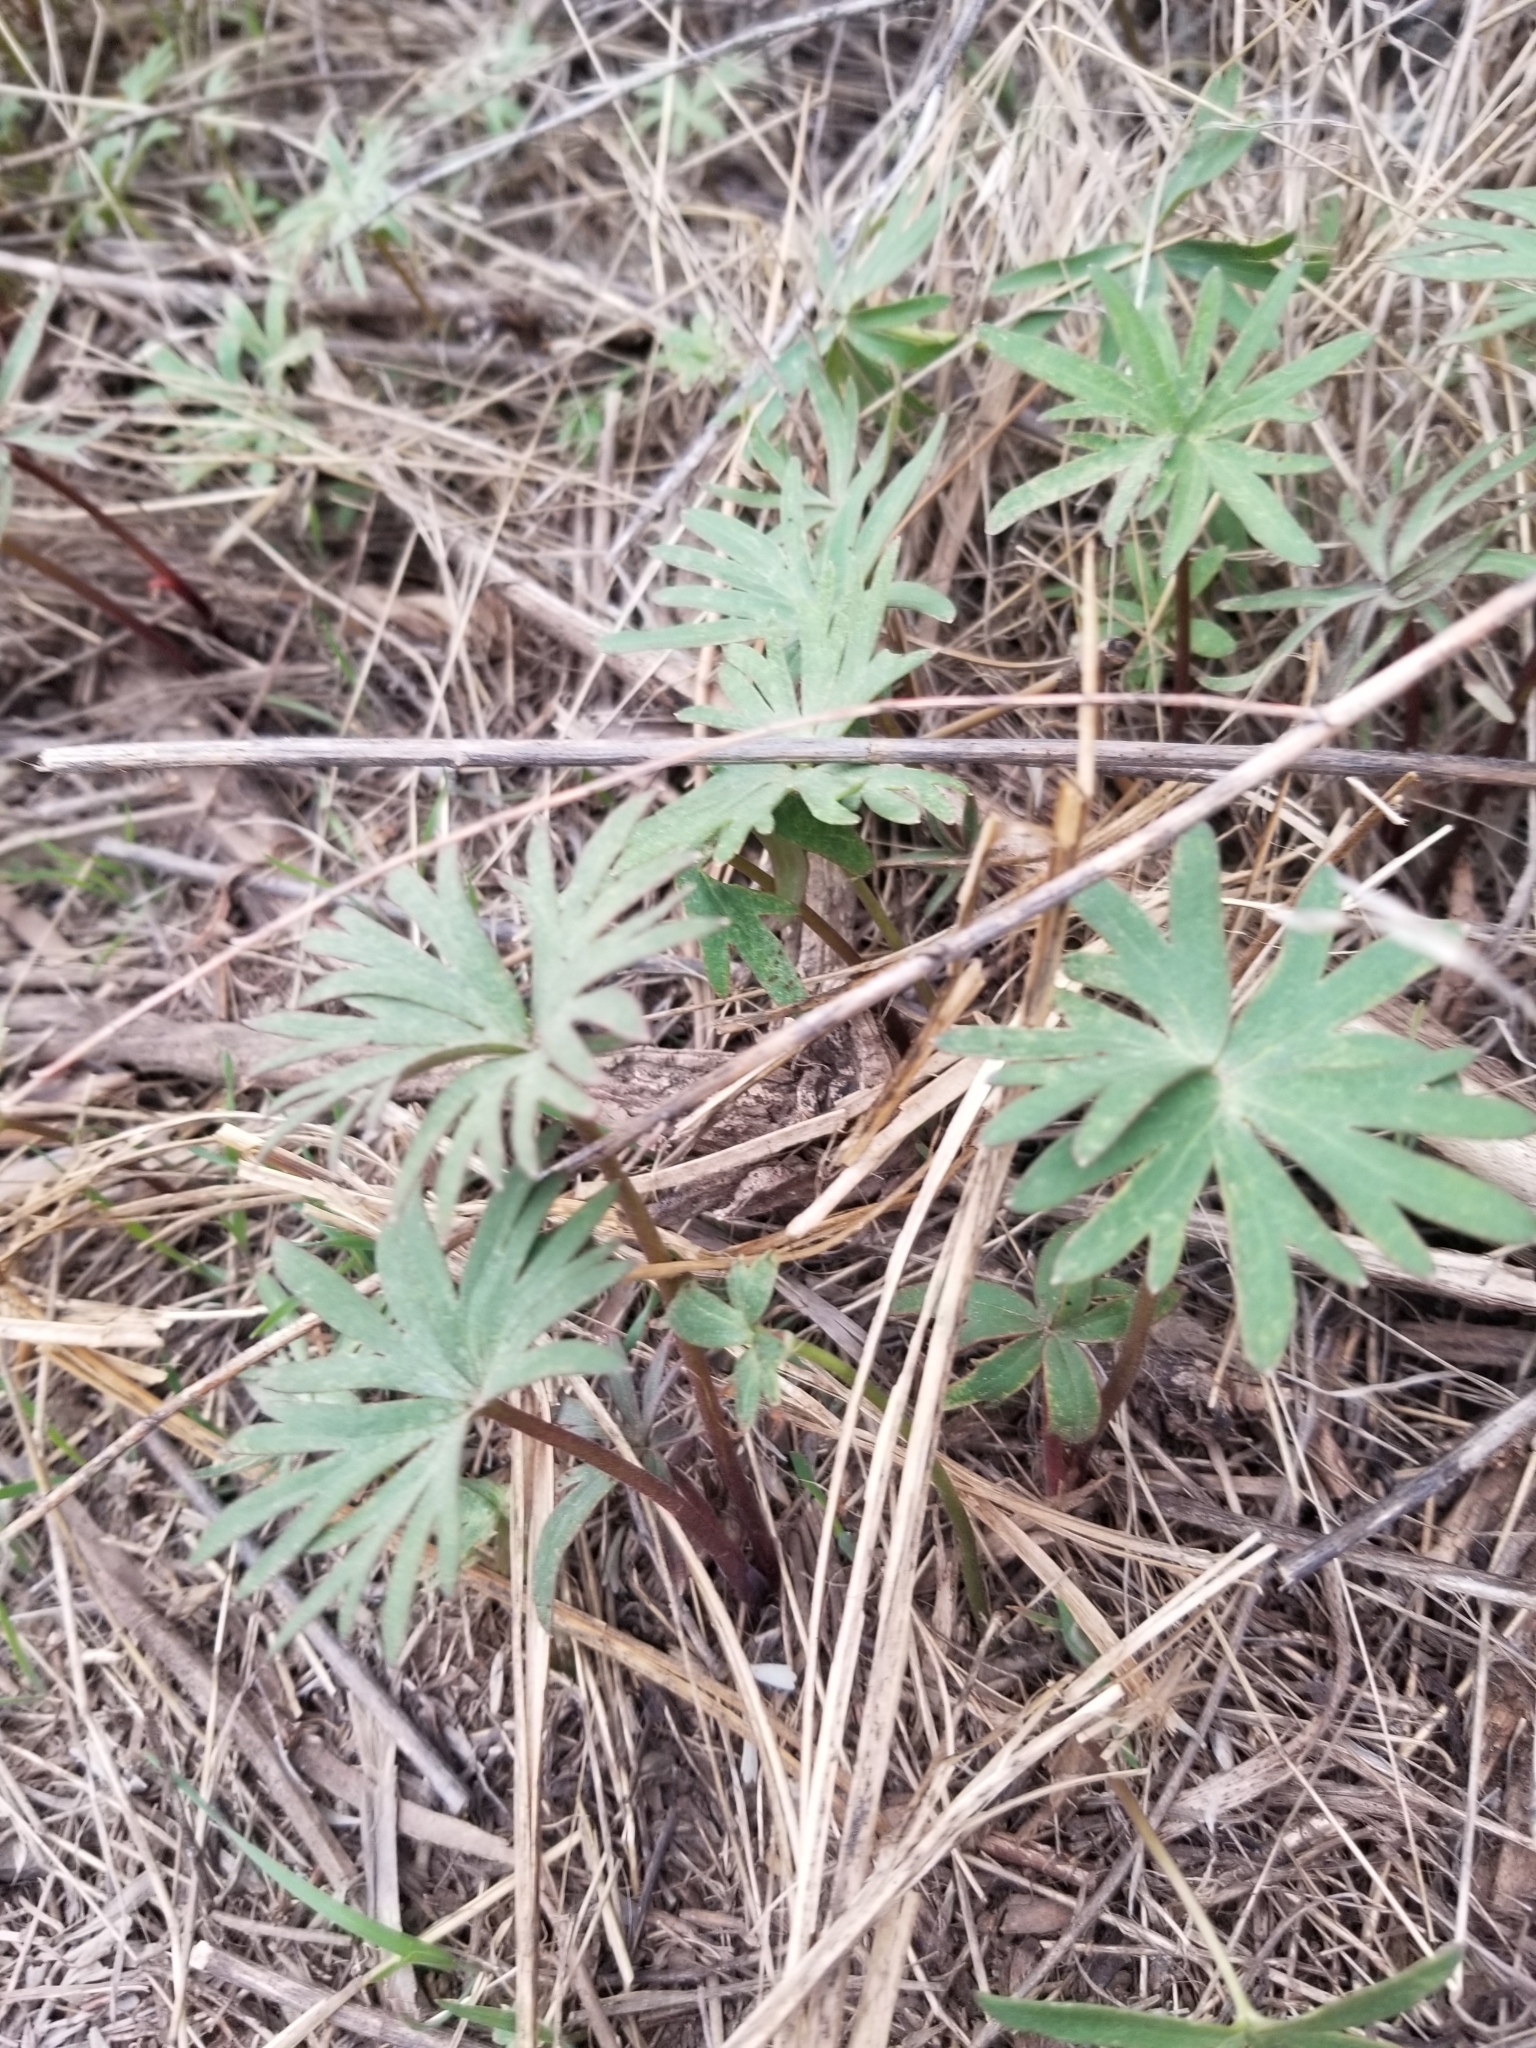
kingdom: Plantae
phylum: Tracheophyta
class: Magnoliopsida
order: Ranunculales
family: Ranunculaceae
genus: Delphinium
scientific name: Delphinium nuttallianum
